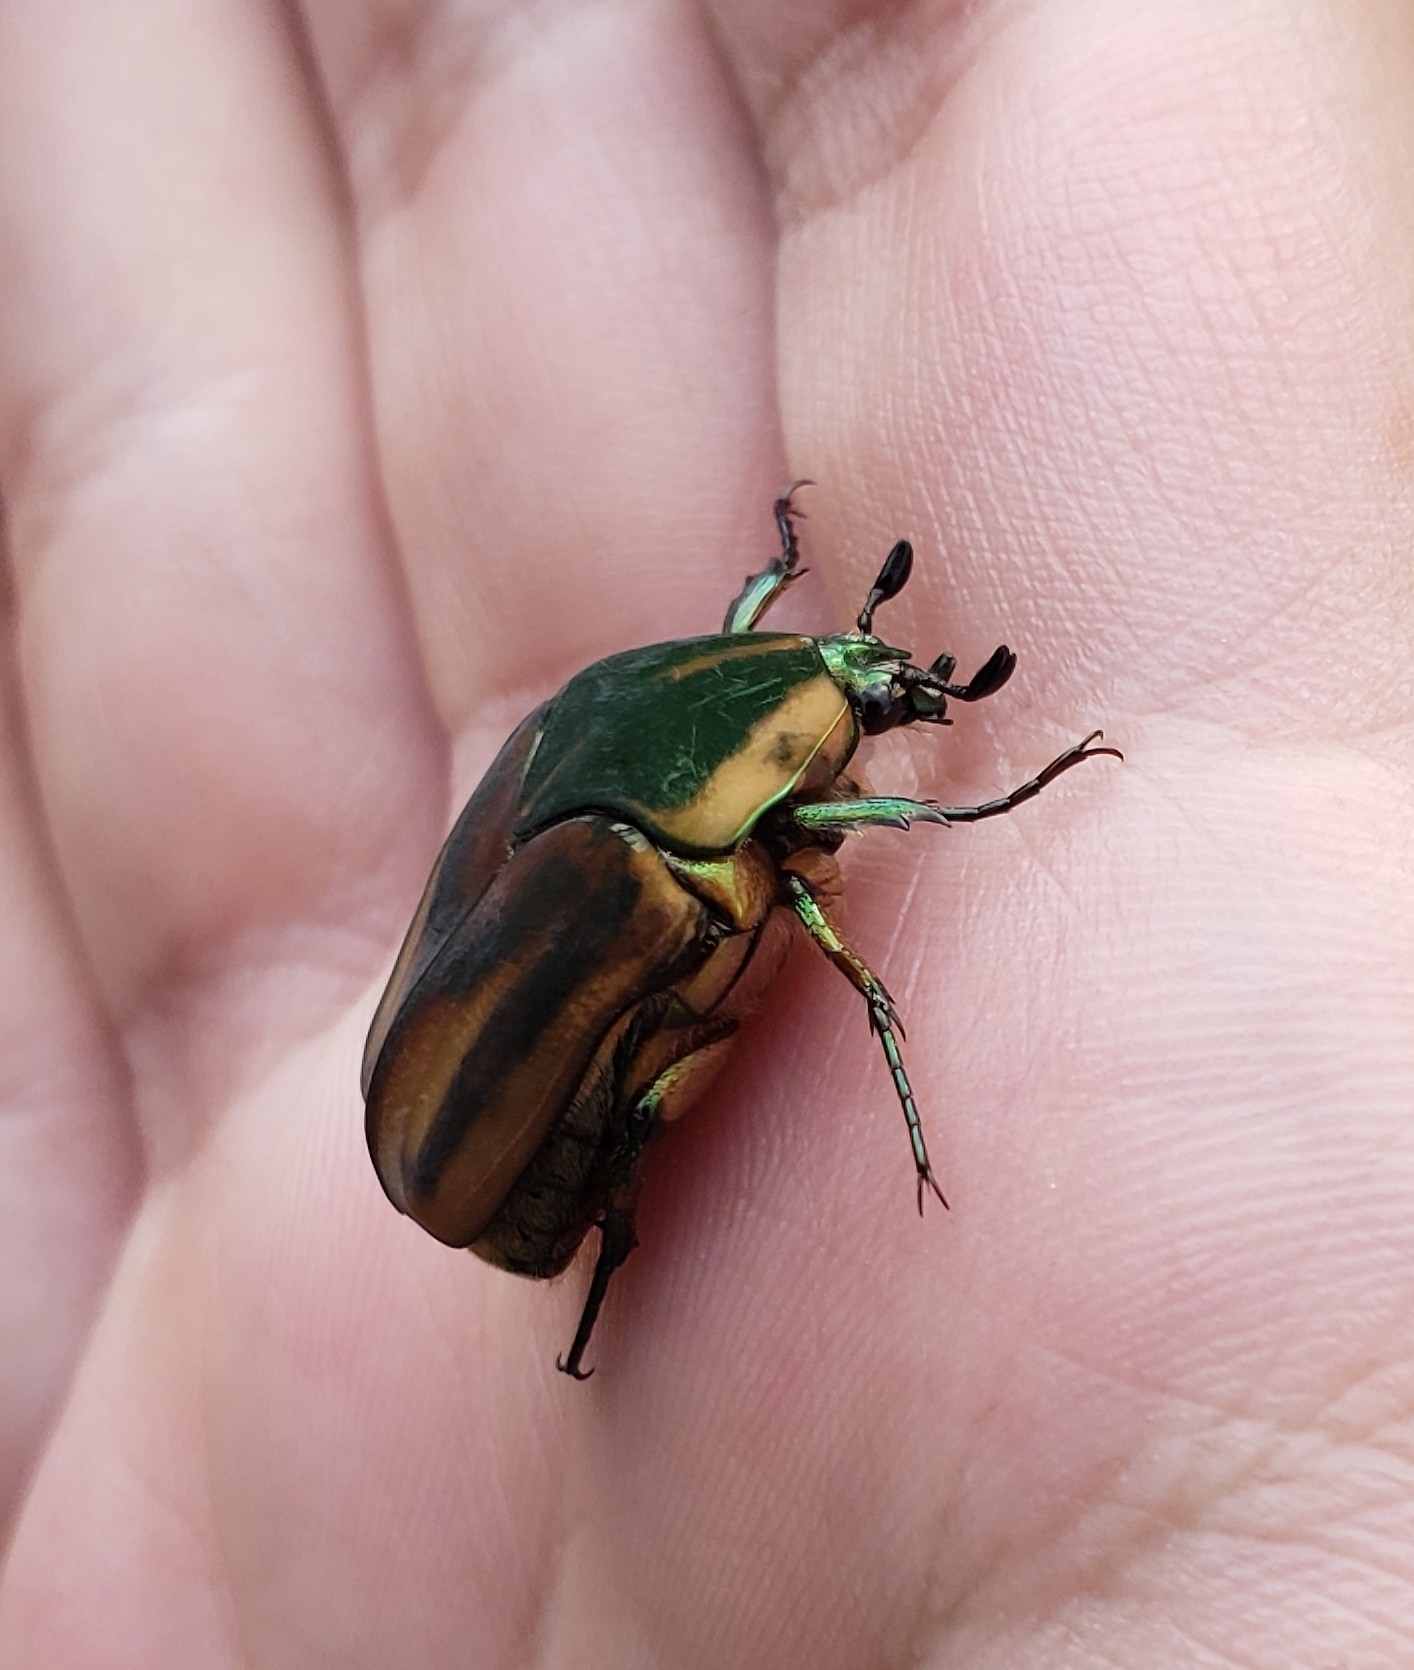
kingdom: Animalia
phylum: Arthropoda
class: Insecta
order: Coleoptera
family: Scarabaeidae
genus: Cotinis
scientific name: Cotinis nitida
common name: Common green june beetle
